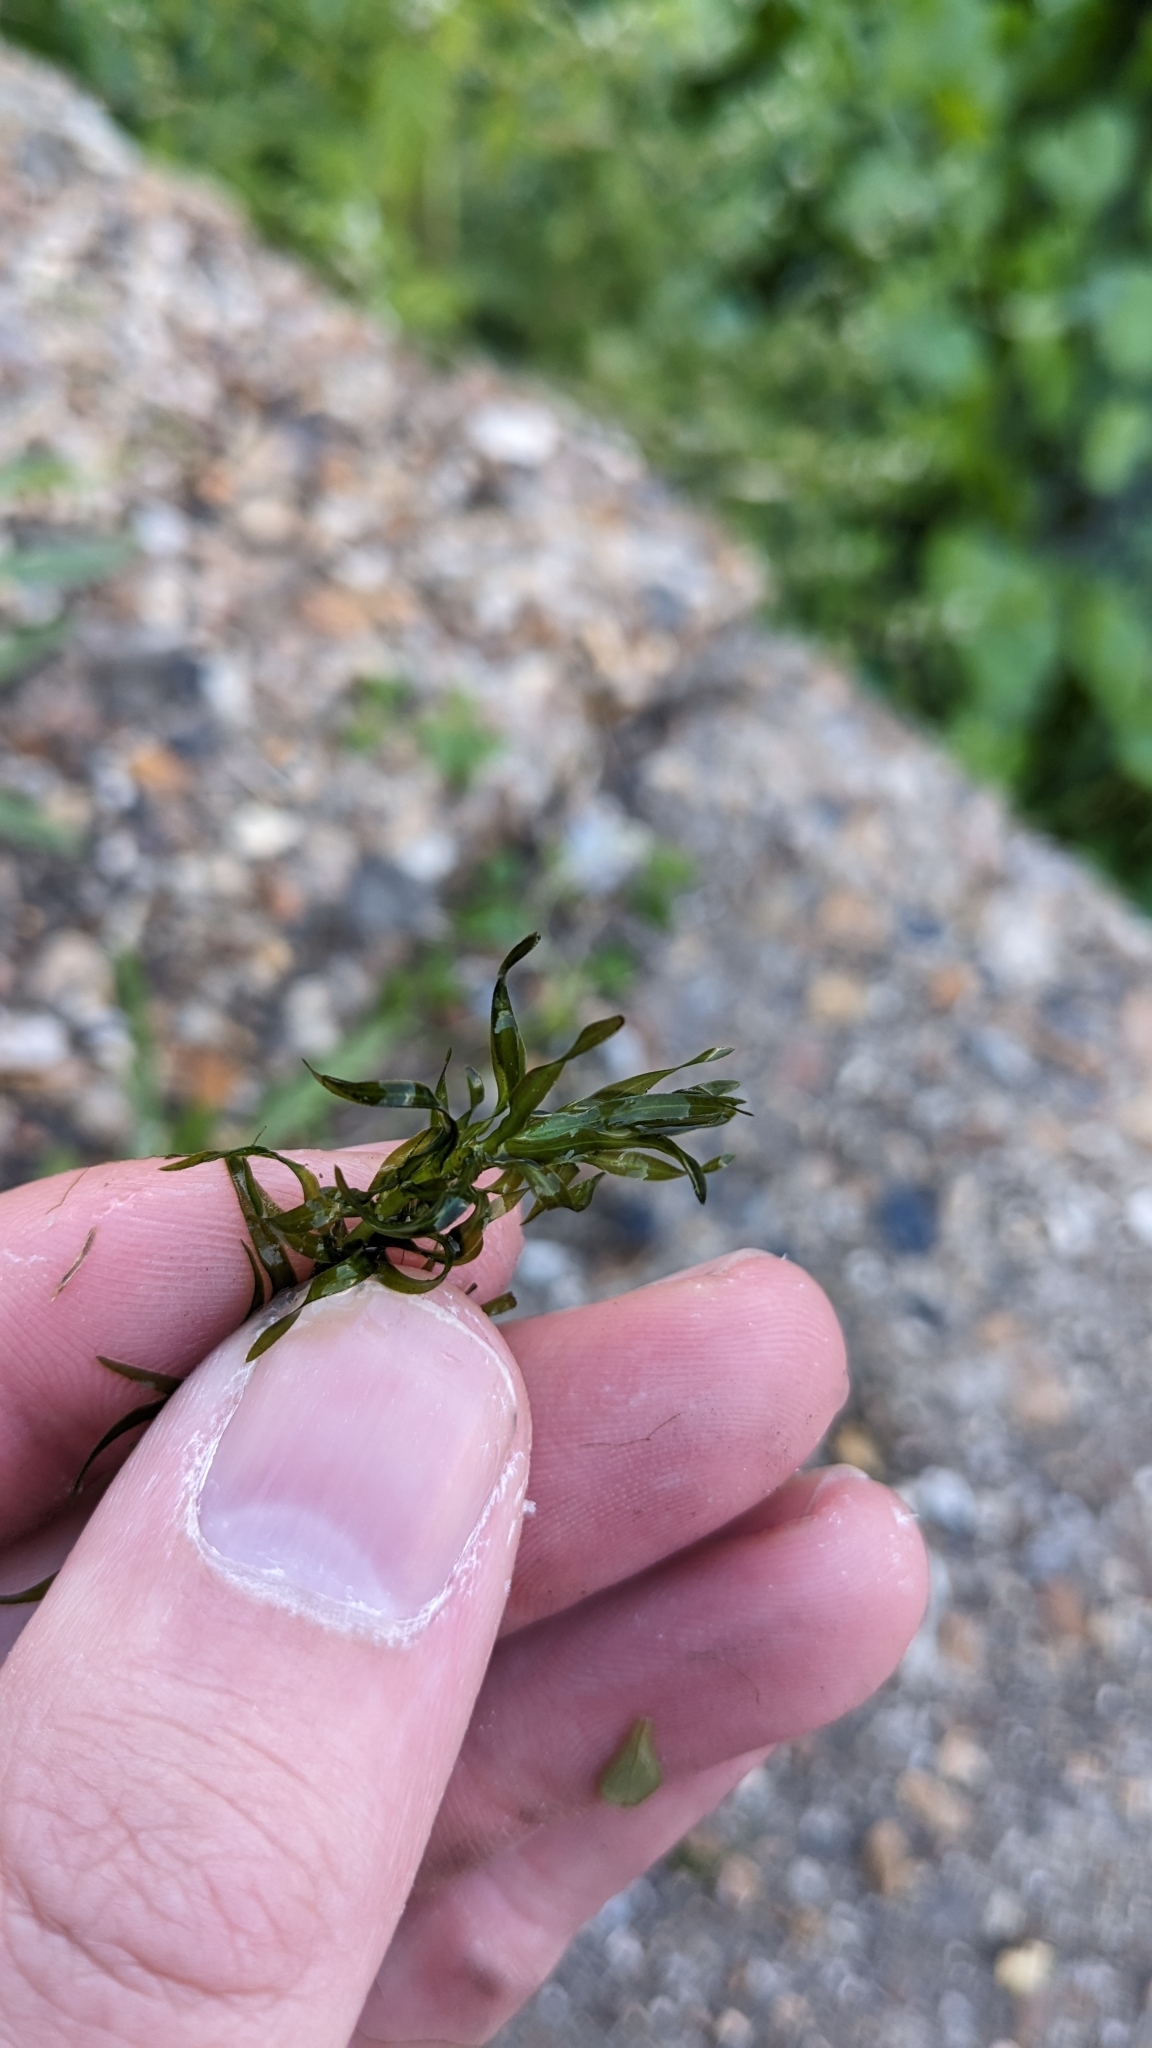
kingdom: Plantae
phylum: Tracheophyta
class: Liliopsida
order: Alismatales
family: Hydrocharitaceae
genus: Elodea
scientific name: Elodea nuttallii
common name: Nuttall's waterweed
